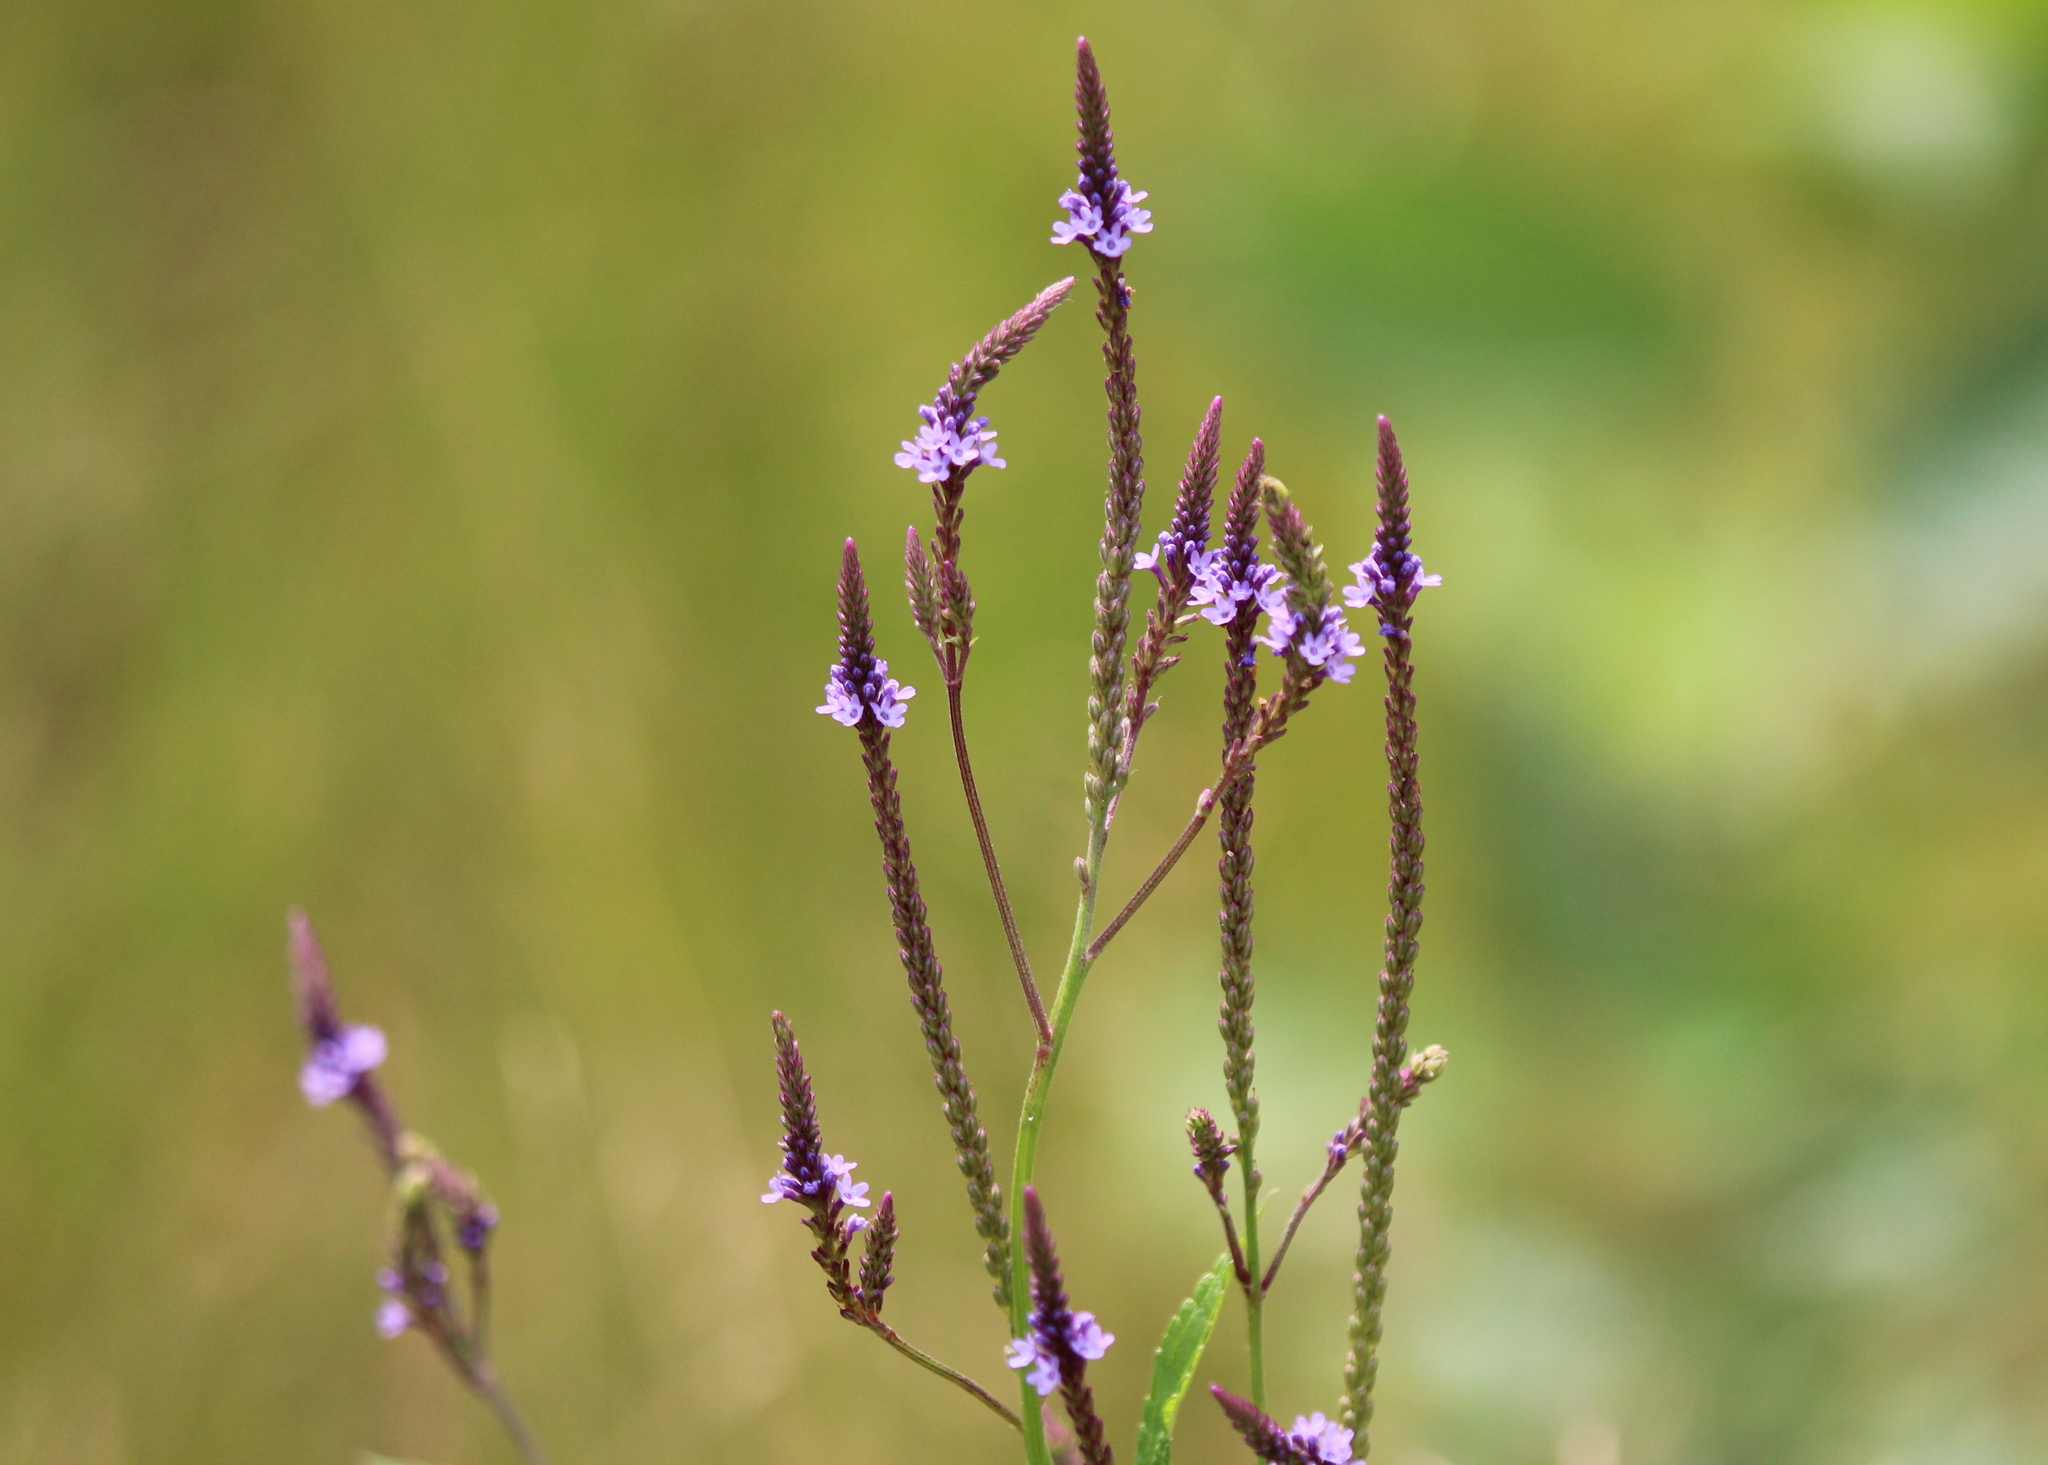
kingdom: Plantae
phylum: Tracheophyta
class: Magnoliopsida
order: Lamiales
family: Verbenaceae
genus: Verbena
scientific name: Verbena hastata
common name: American blue vervain
